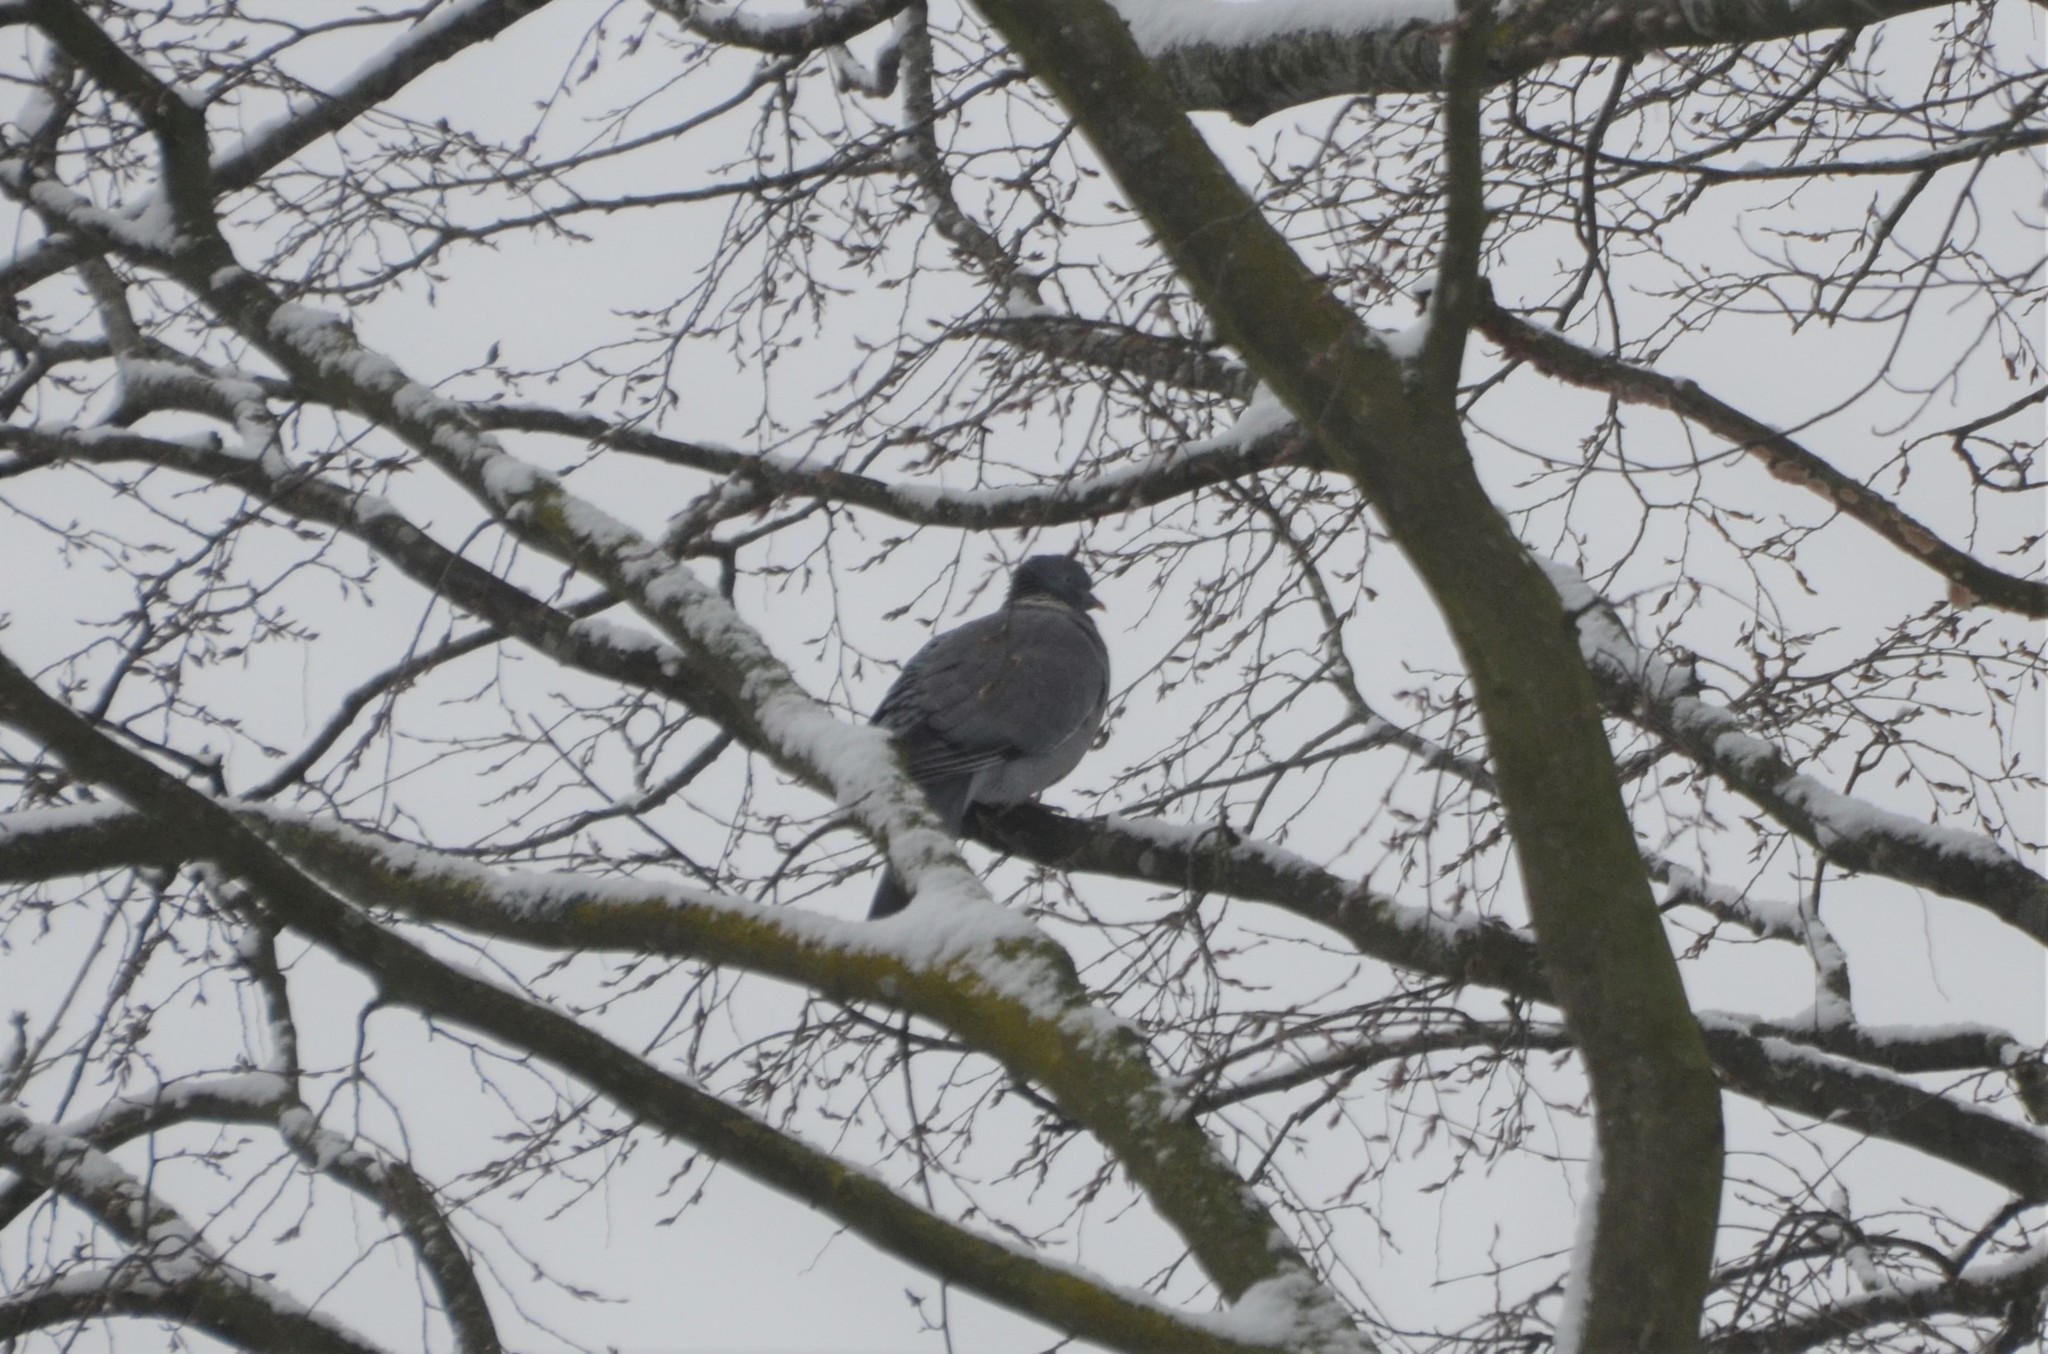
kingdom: Animalia
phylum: Chordata
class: Aves
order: Columbiformes
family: Columbidae
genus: Columba
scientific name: Columba palumbus
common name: Common wood pigeon
